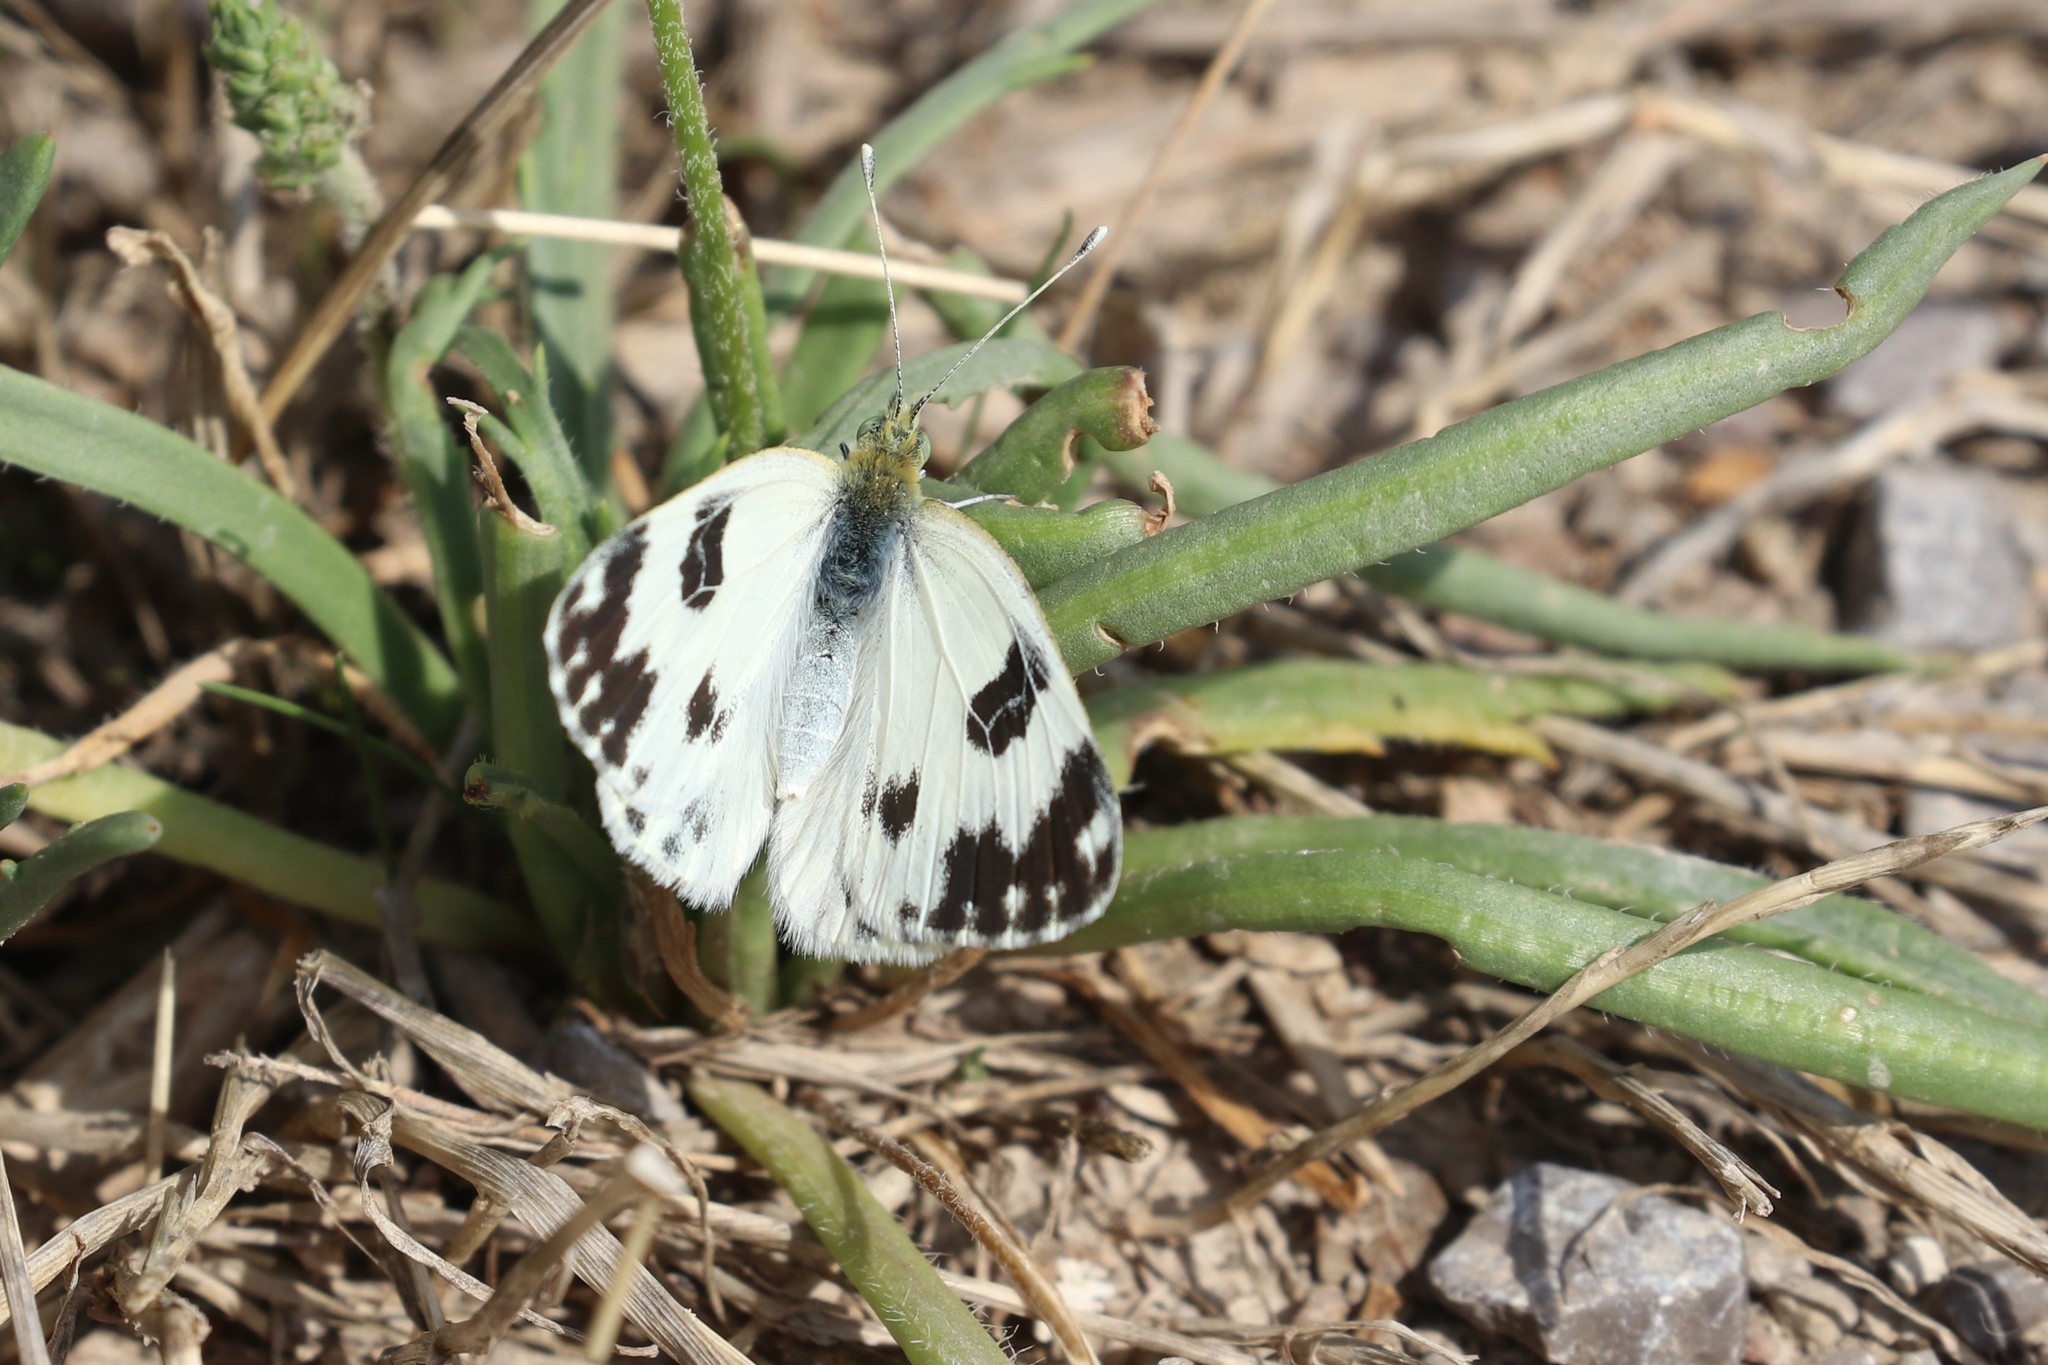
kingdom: Animalia
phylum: Arthropoda
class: Insecta
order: Lepidoptera
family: Pieridae
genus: Pontia
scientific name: Pontia daplidice
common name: Bath white
